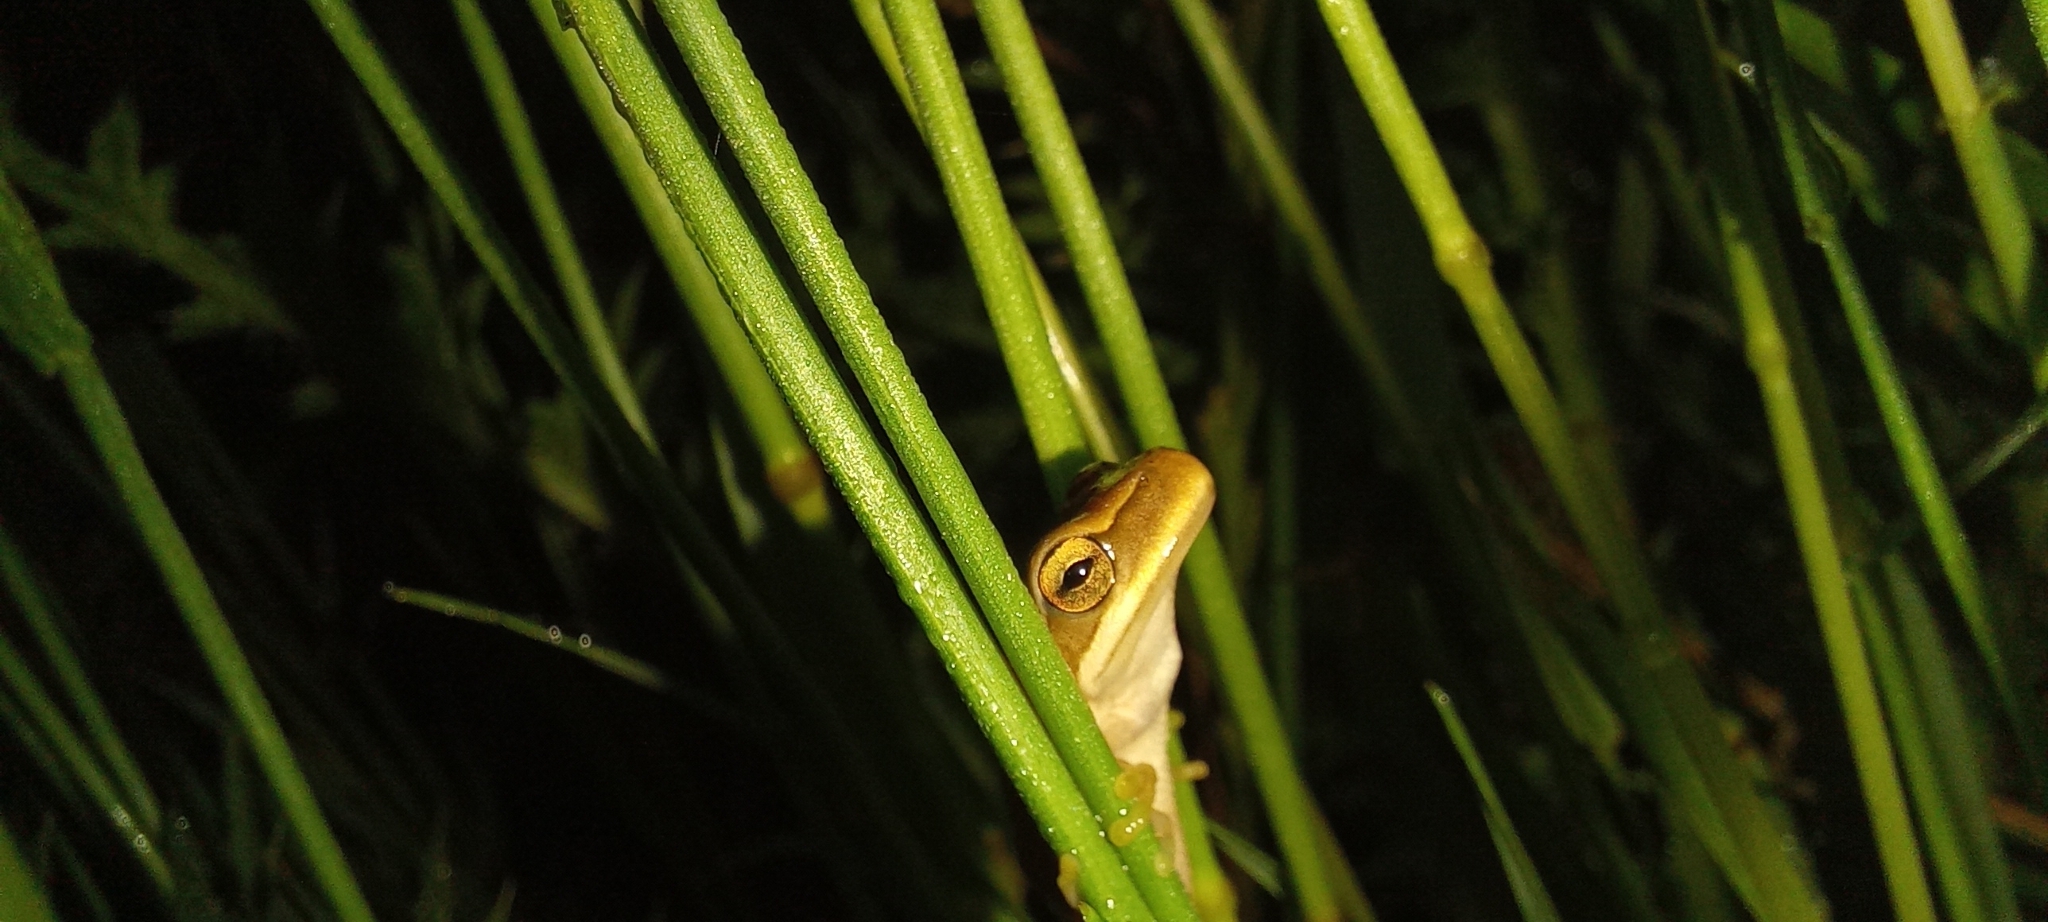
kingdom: Animalia
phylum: Chordata
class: Amphibia
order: Anura
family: Hylidae
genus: Boana
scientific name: Boana pulchella
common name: Montevideo treefrog
